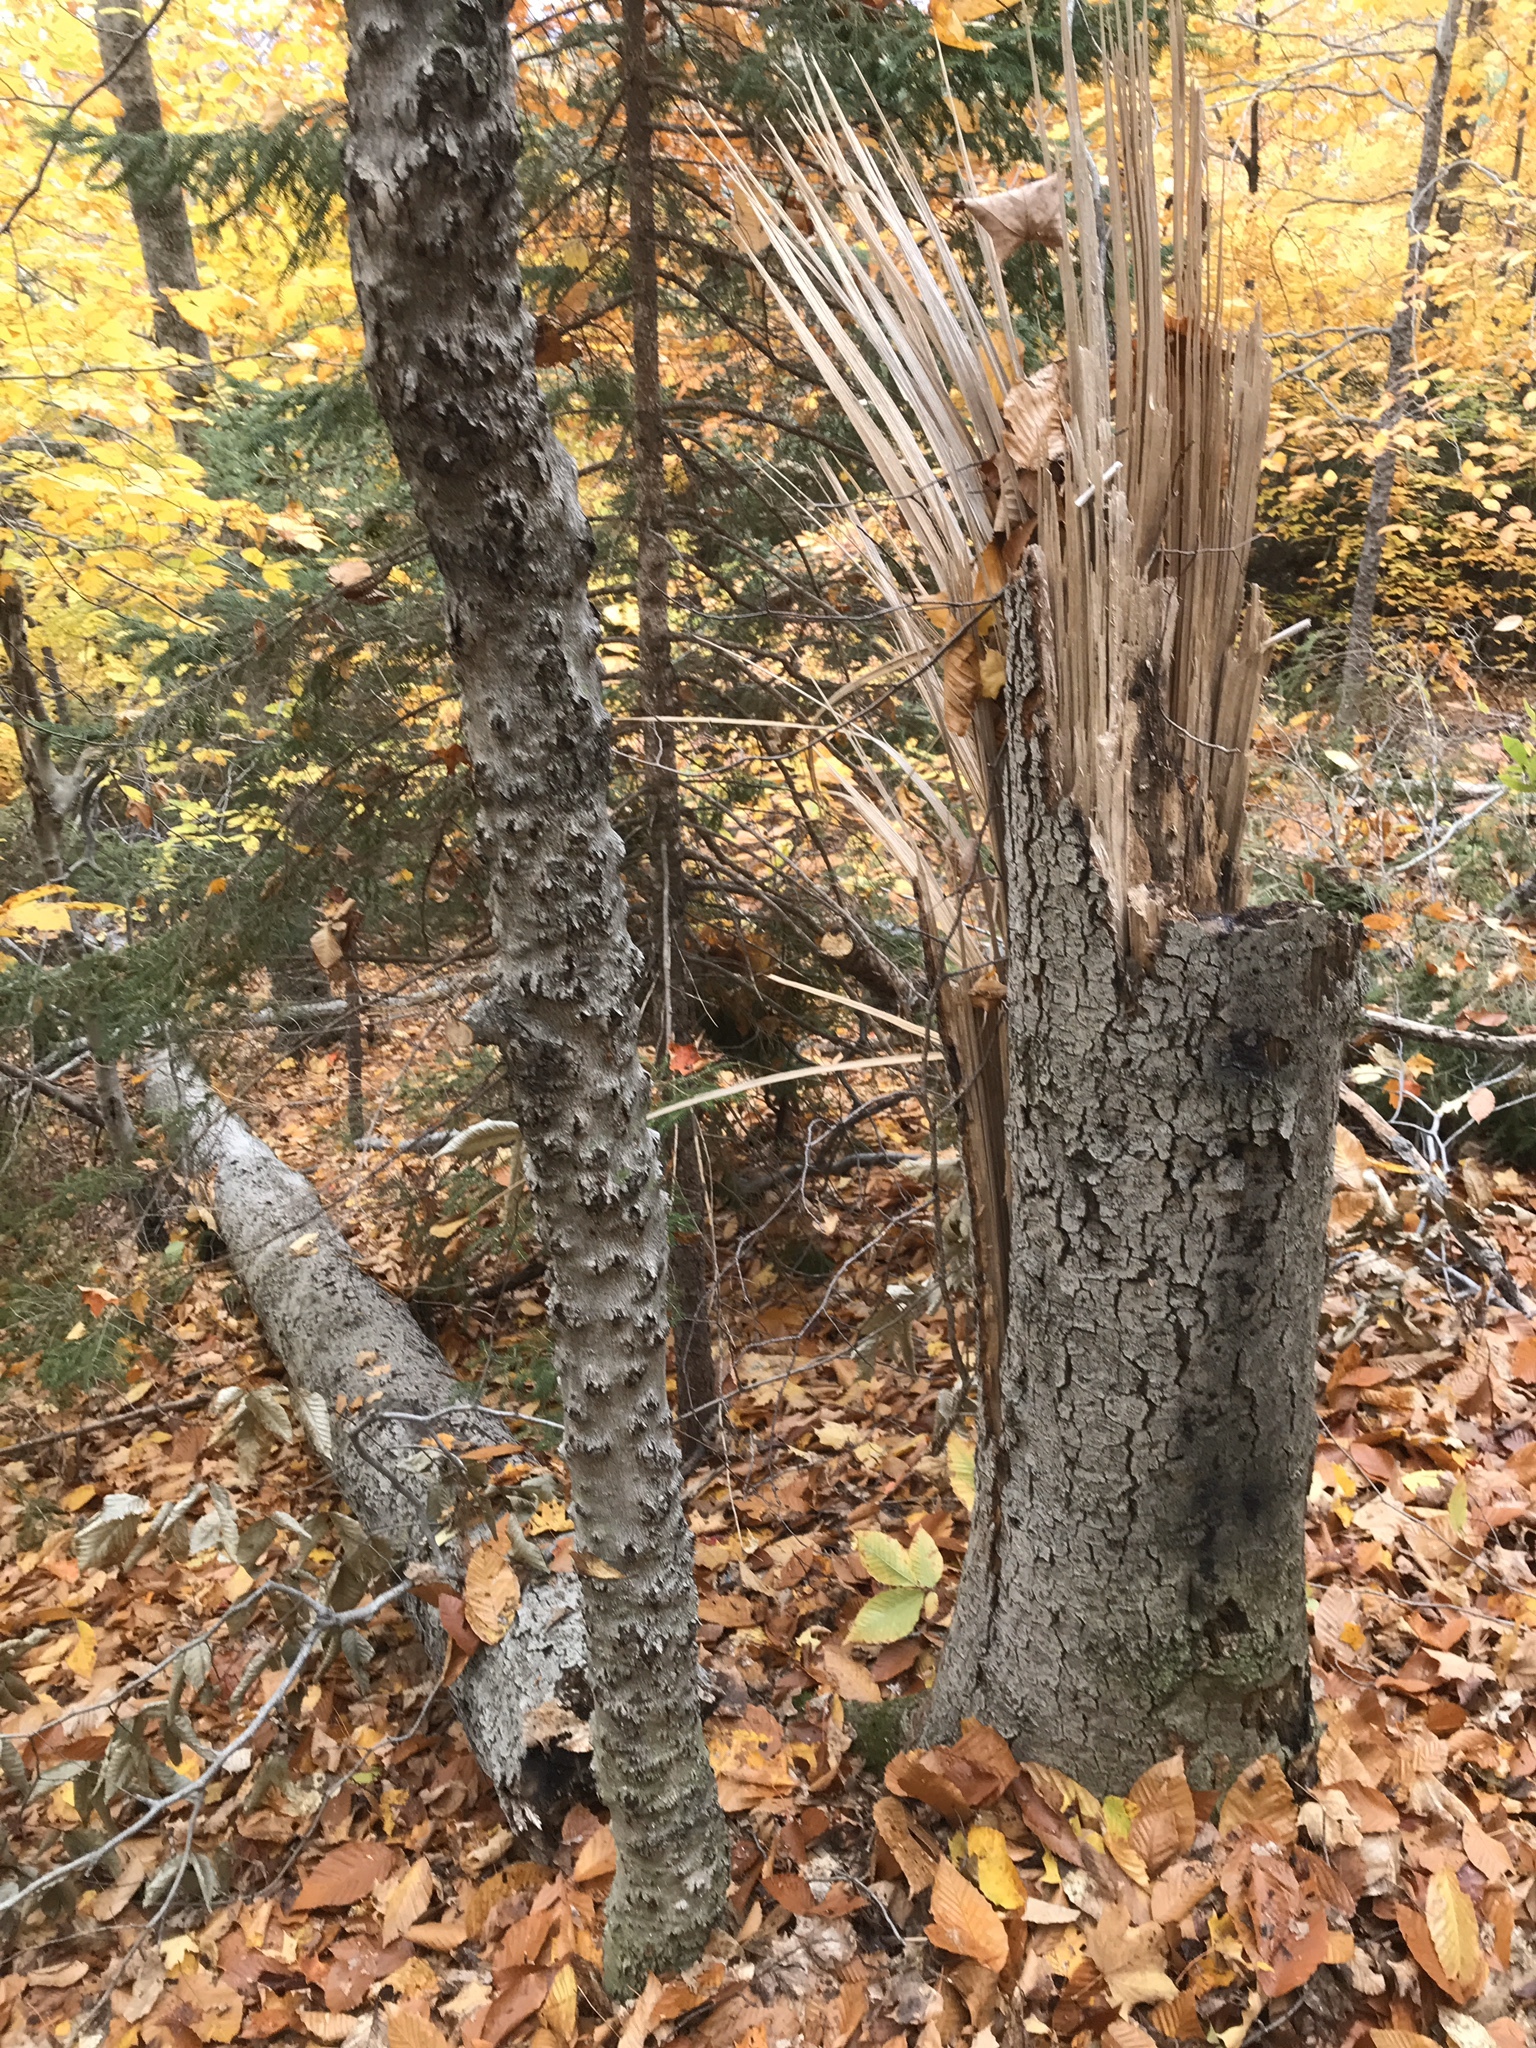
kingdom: Plantae
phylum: Tracheophyta
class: Magnoliopsida
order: Fagales
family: Fagaceae
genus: Fagus
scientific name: Fagus grandifolia
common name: American beech
